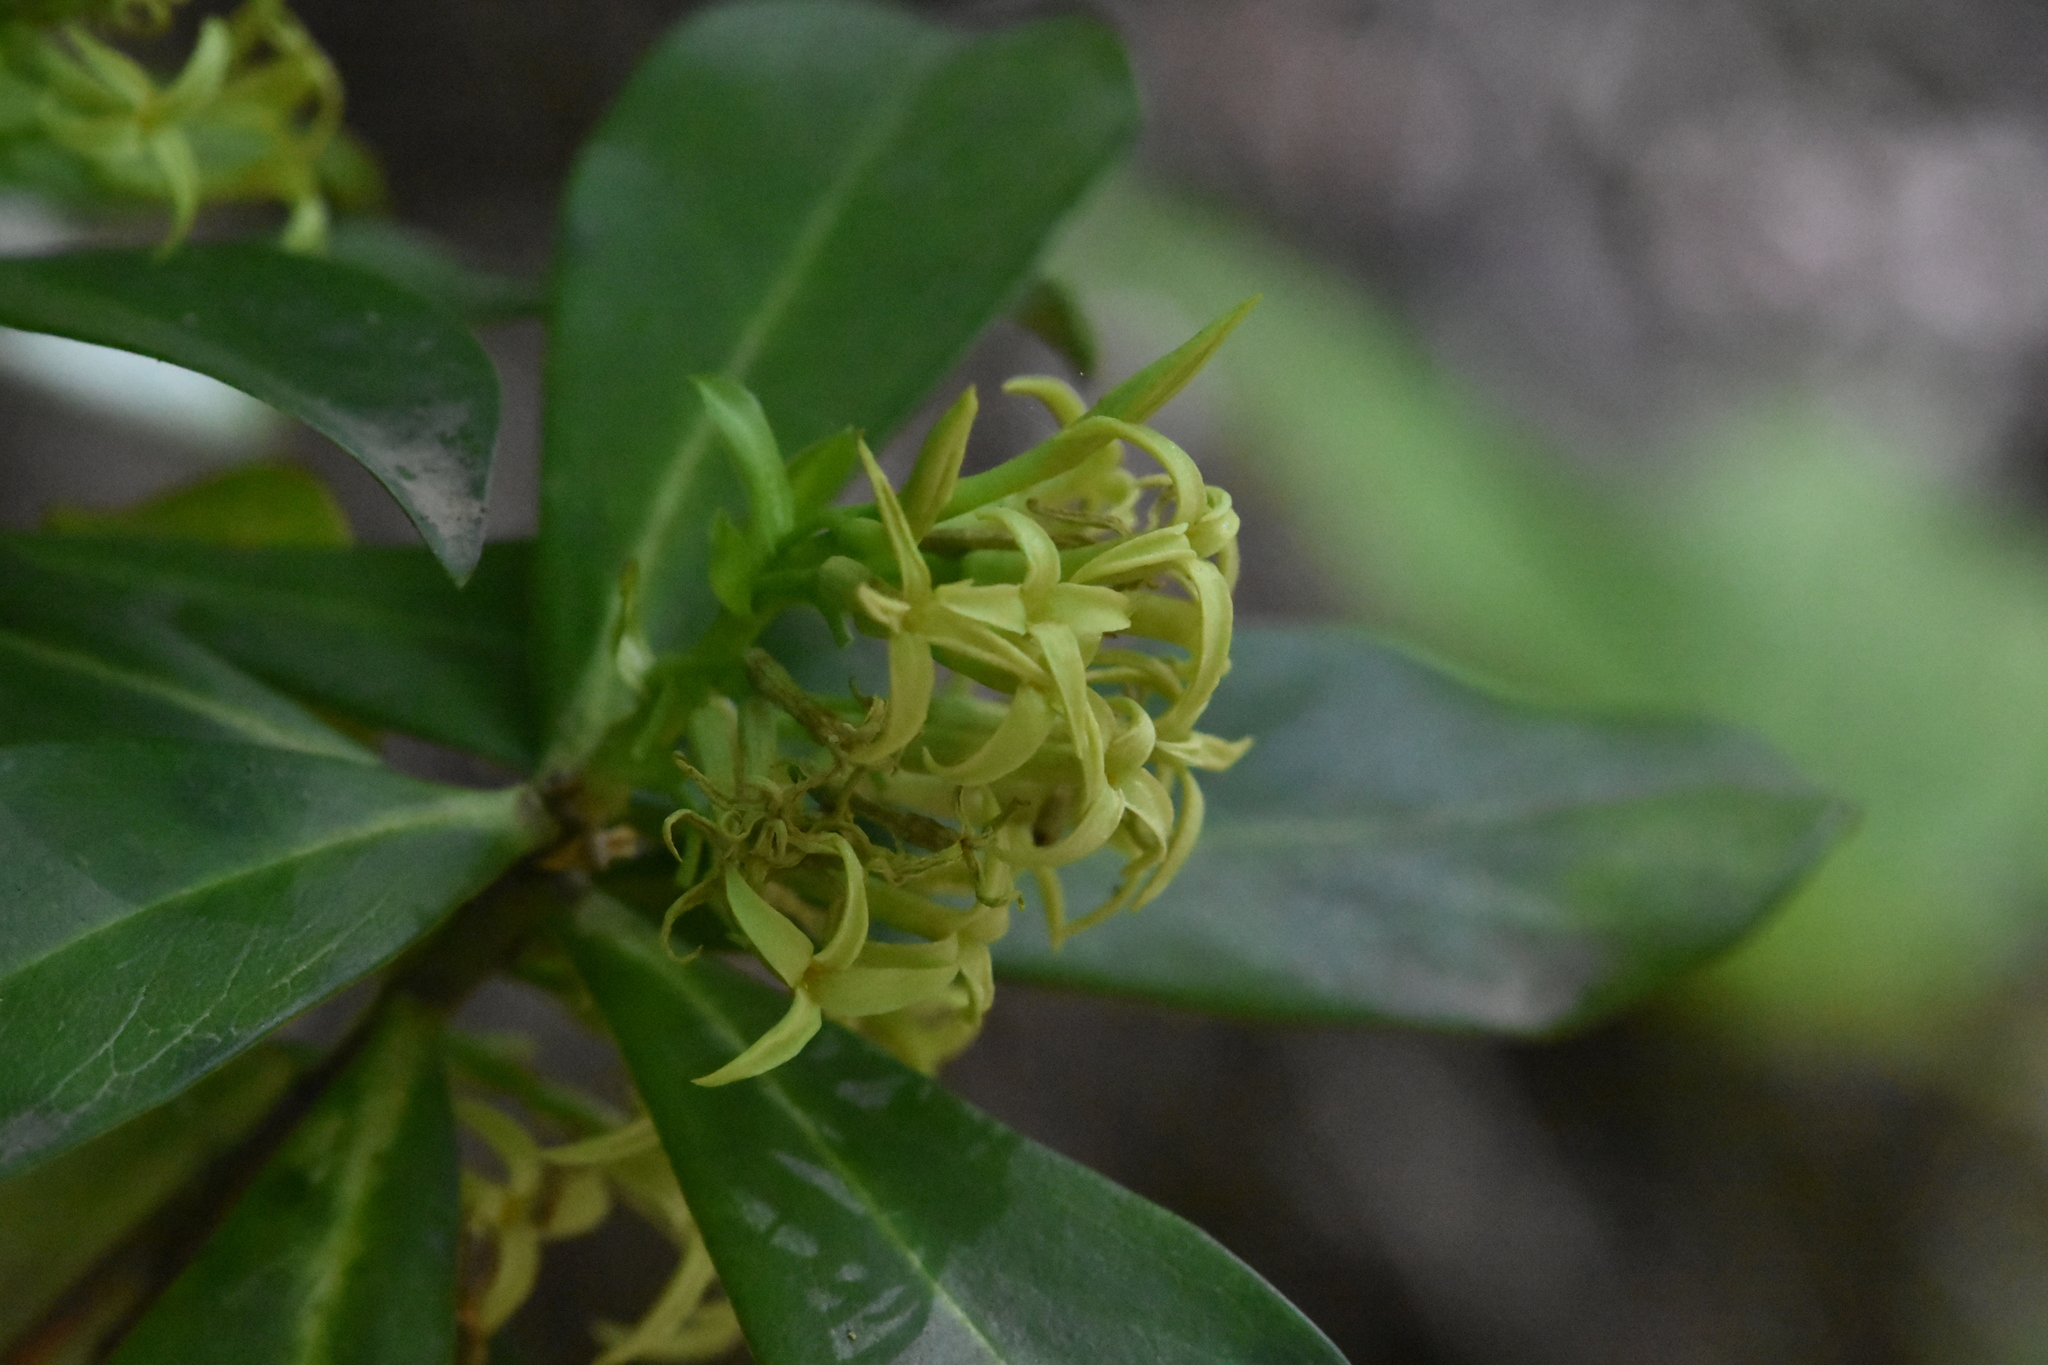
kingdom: Plantae
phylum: Tracheophyta
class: Magnoliopsida
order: Malvales
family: Thymelaeaceae
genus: Daphne
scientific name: Daphne pontica
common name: Twin-flower daphne
